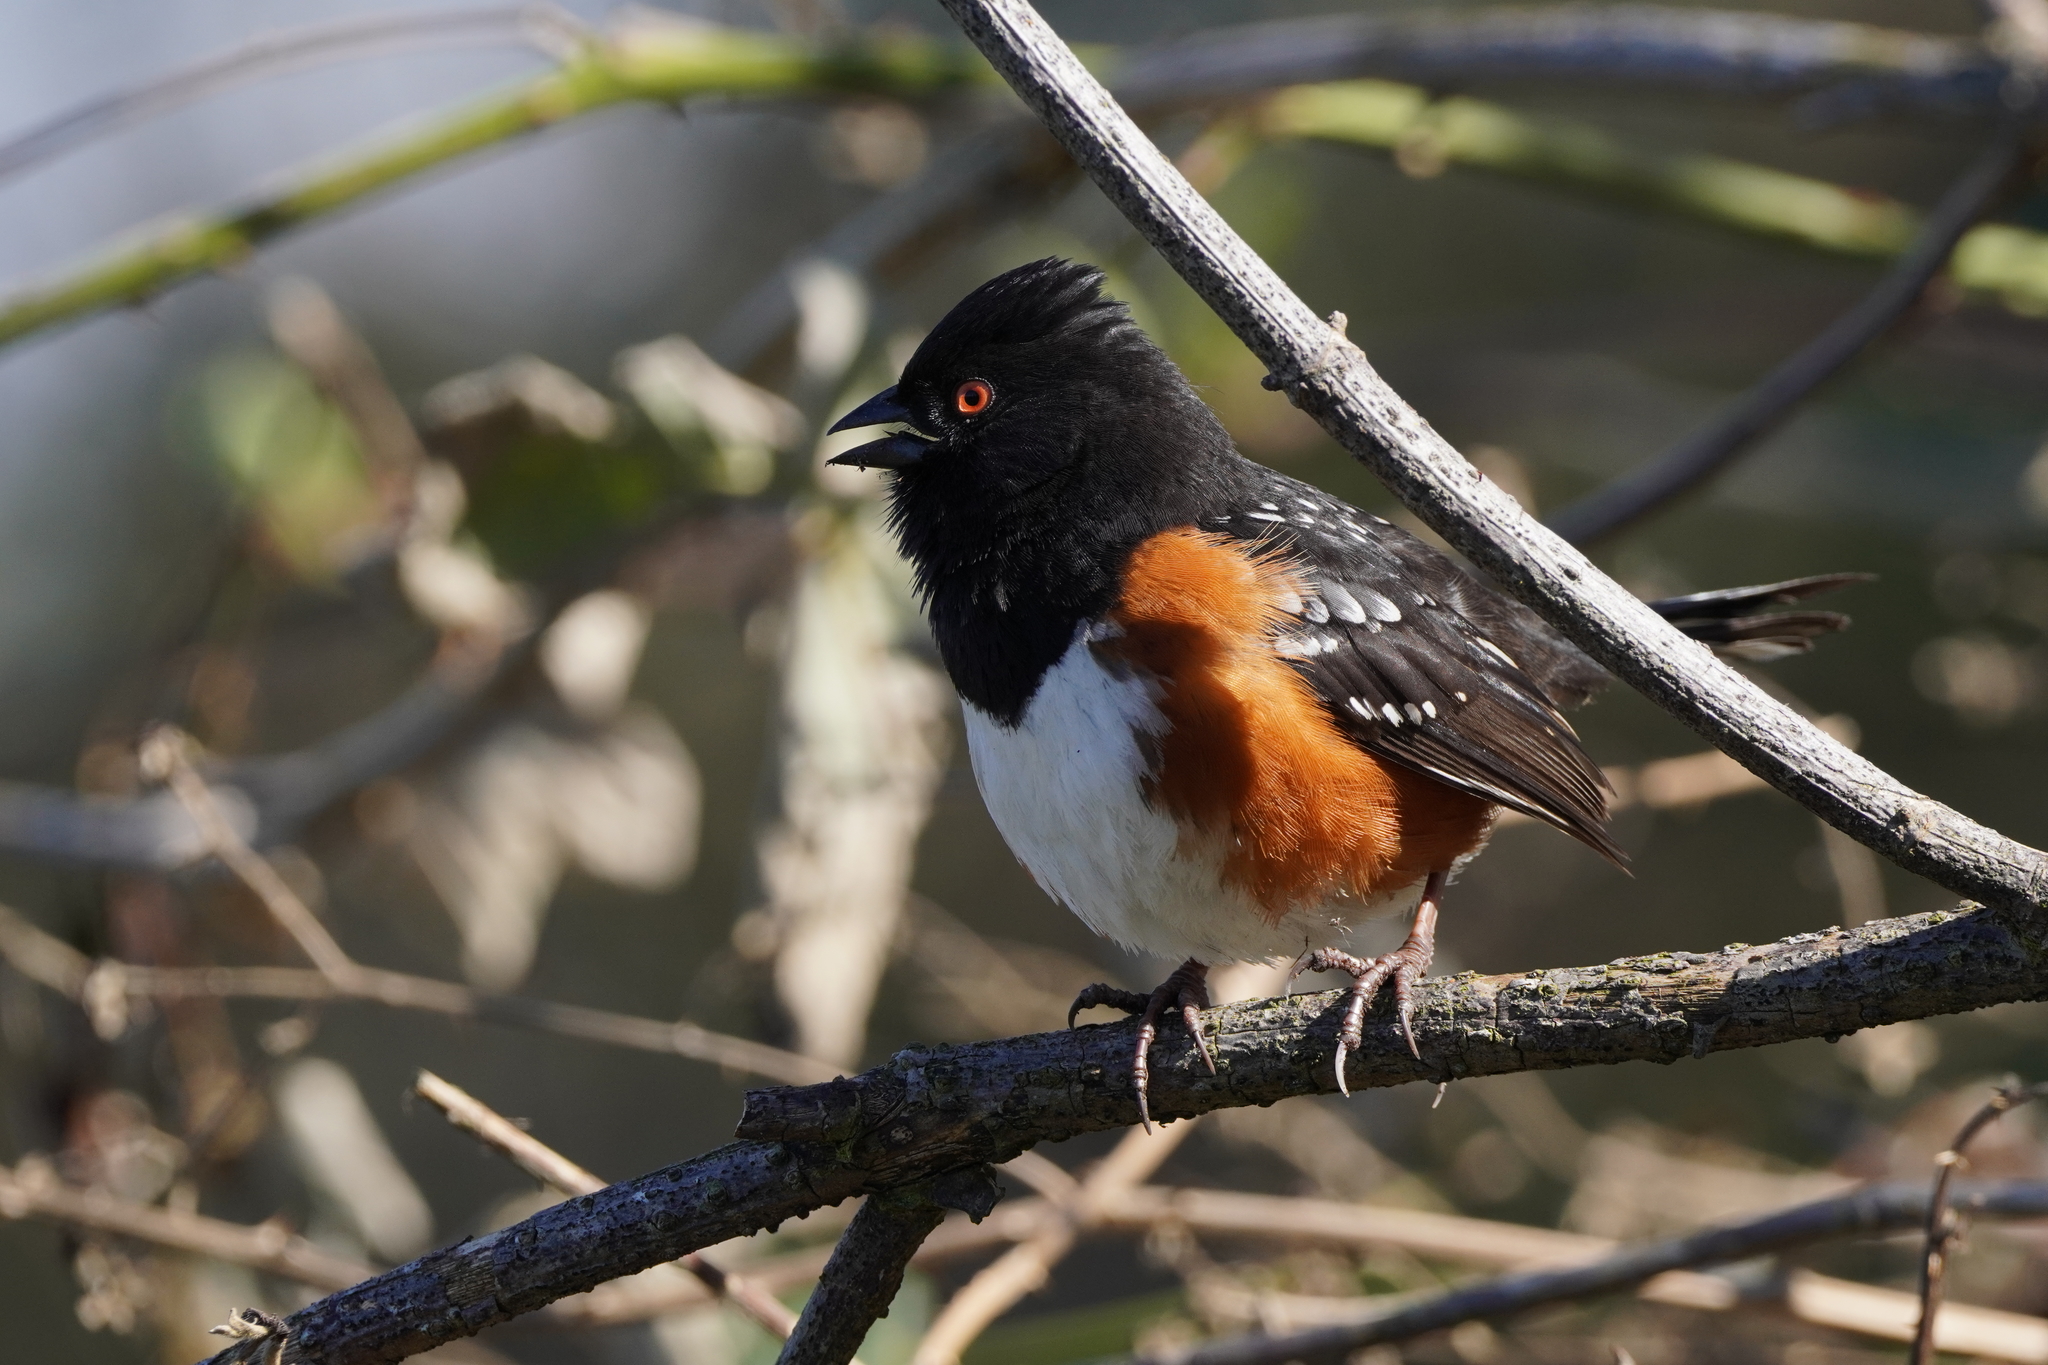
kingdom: Animalia
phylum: Chordata
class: Aves
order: Passeriformes
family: Passerellidae
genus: Pipilo
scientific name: Pipilo maculatus
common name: Spotted towhee
